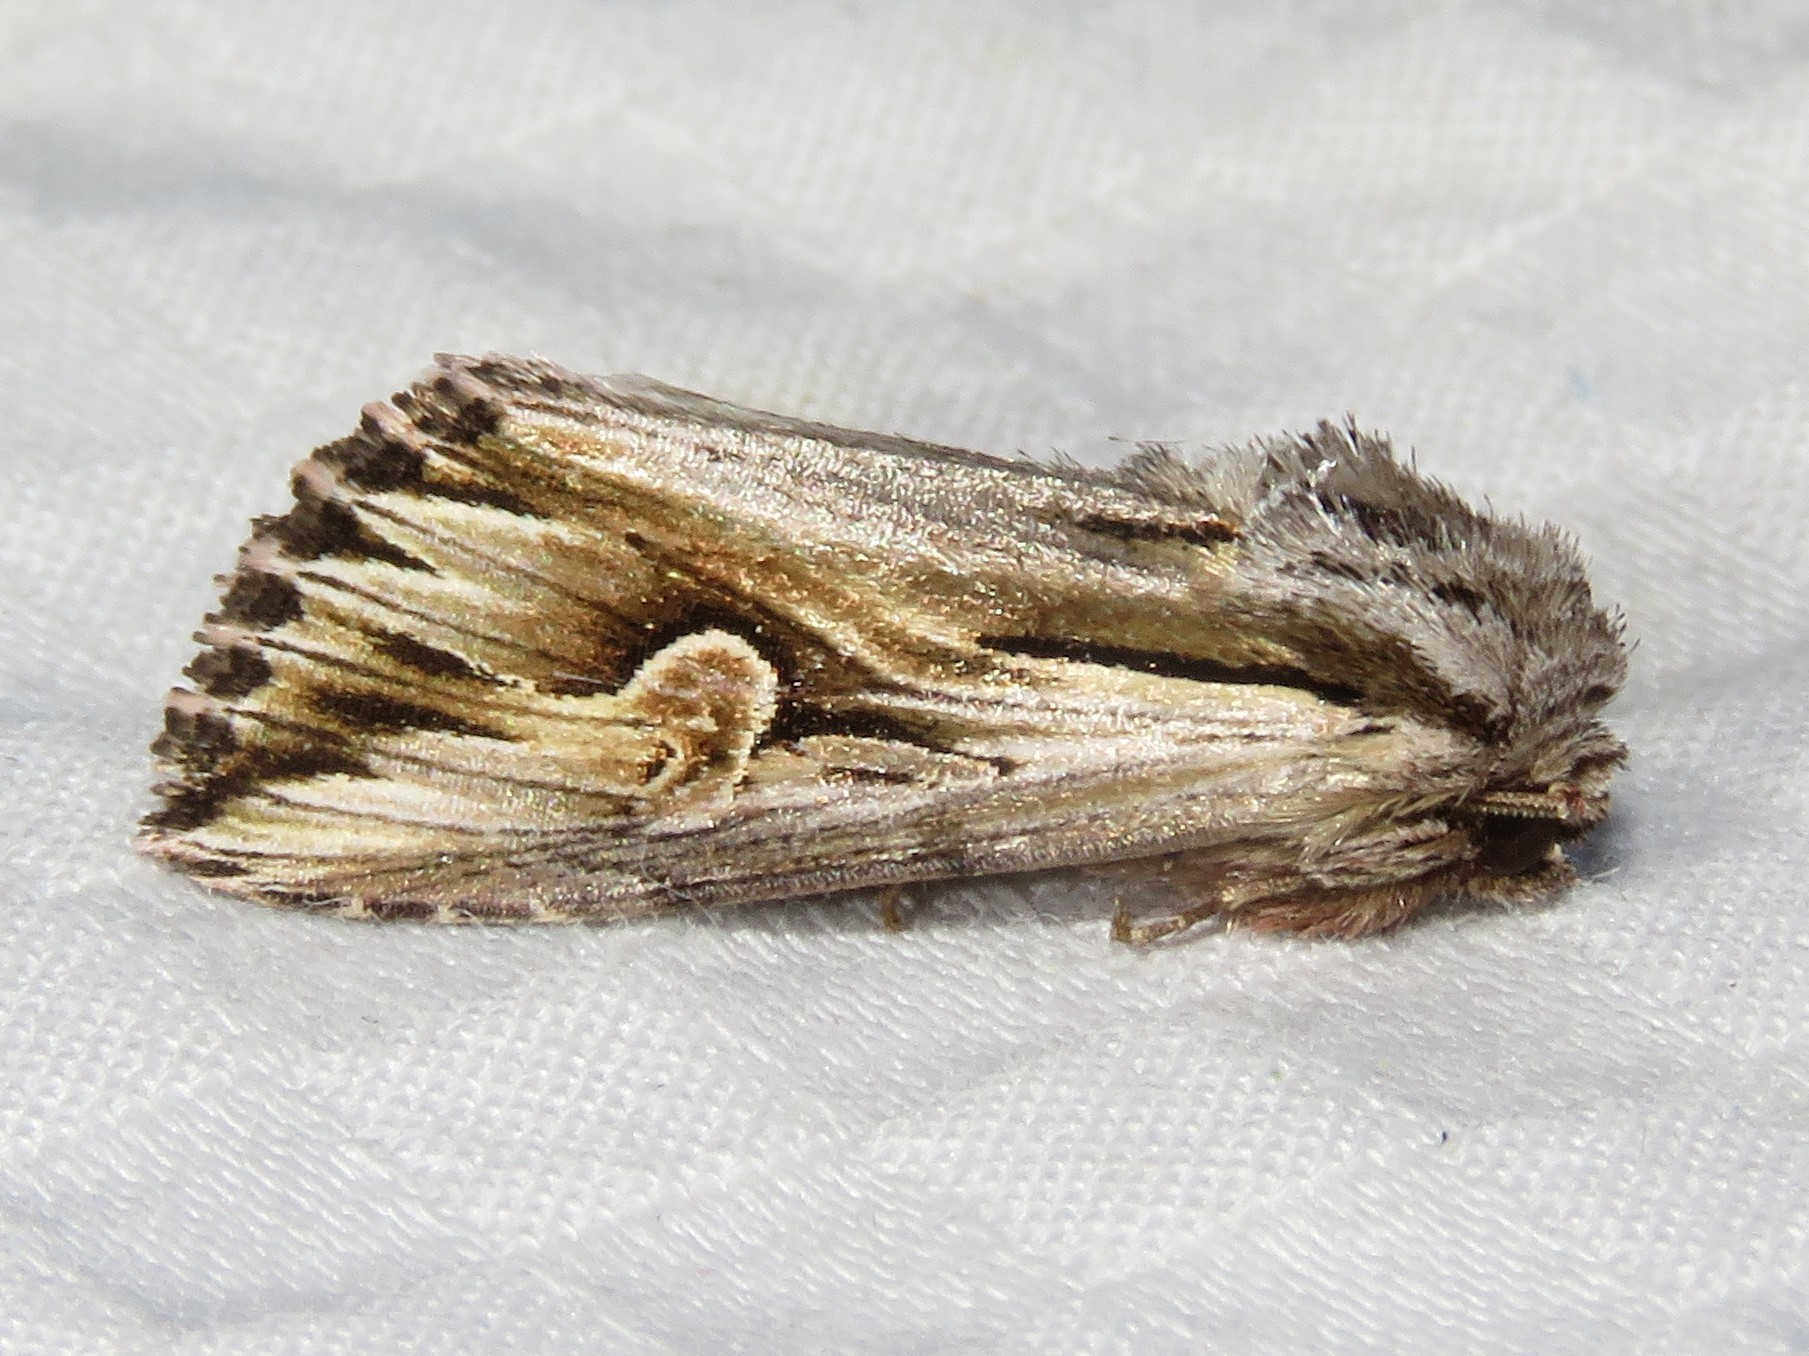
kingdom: Animalia
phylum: Arthropoda
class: Insecta
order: Lepidoptera
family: Noctuidae
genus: Nedra
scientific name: Nedra ramosula
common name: Gray half-spot
